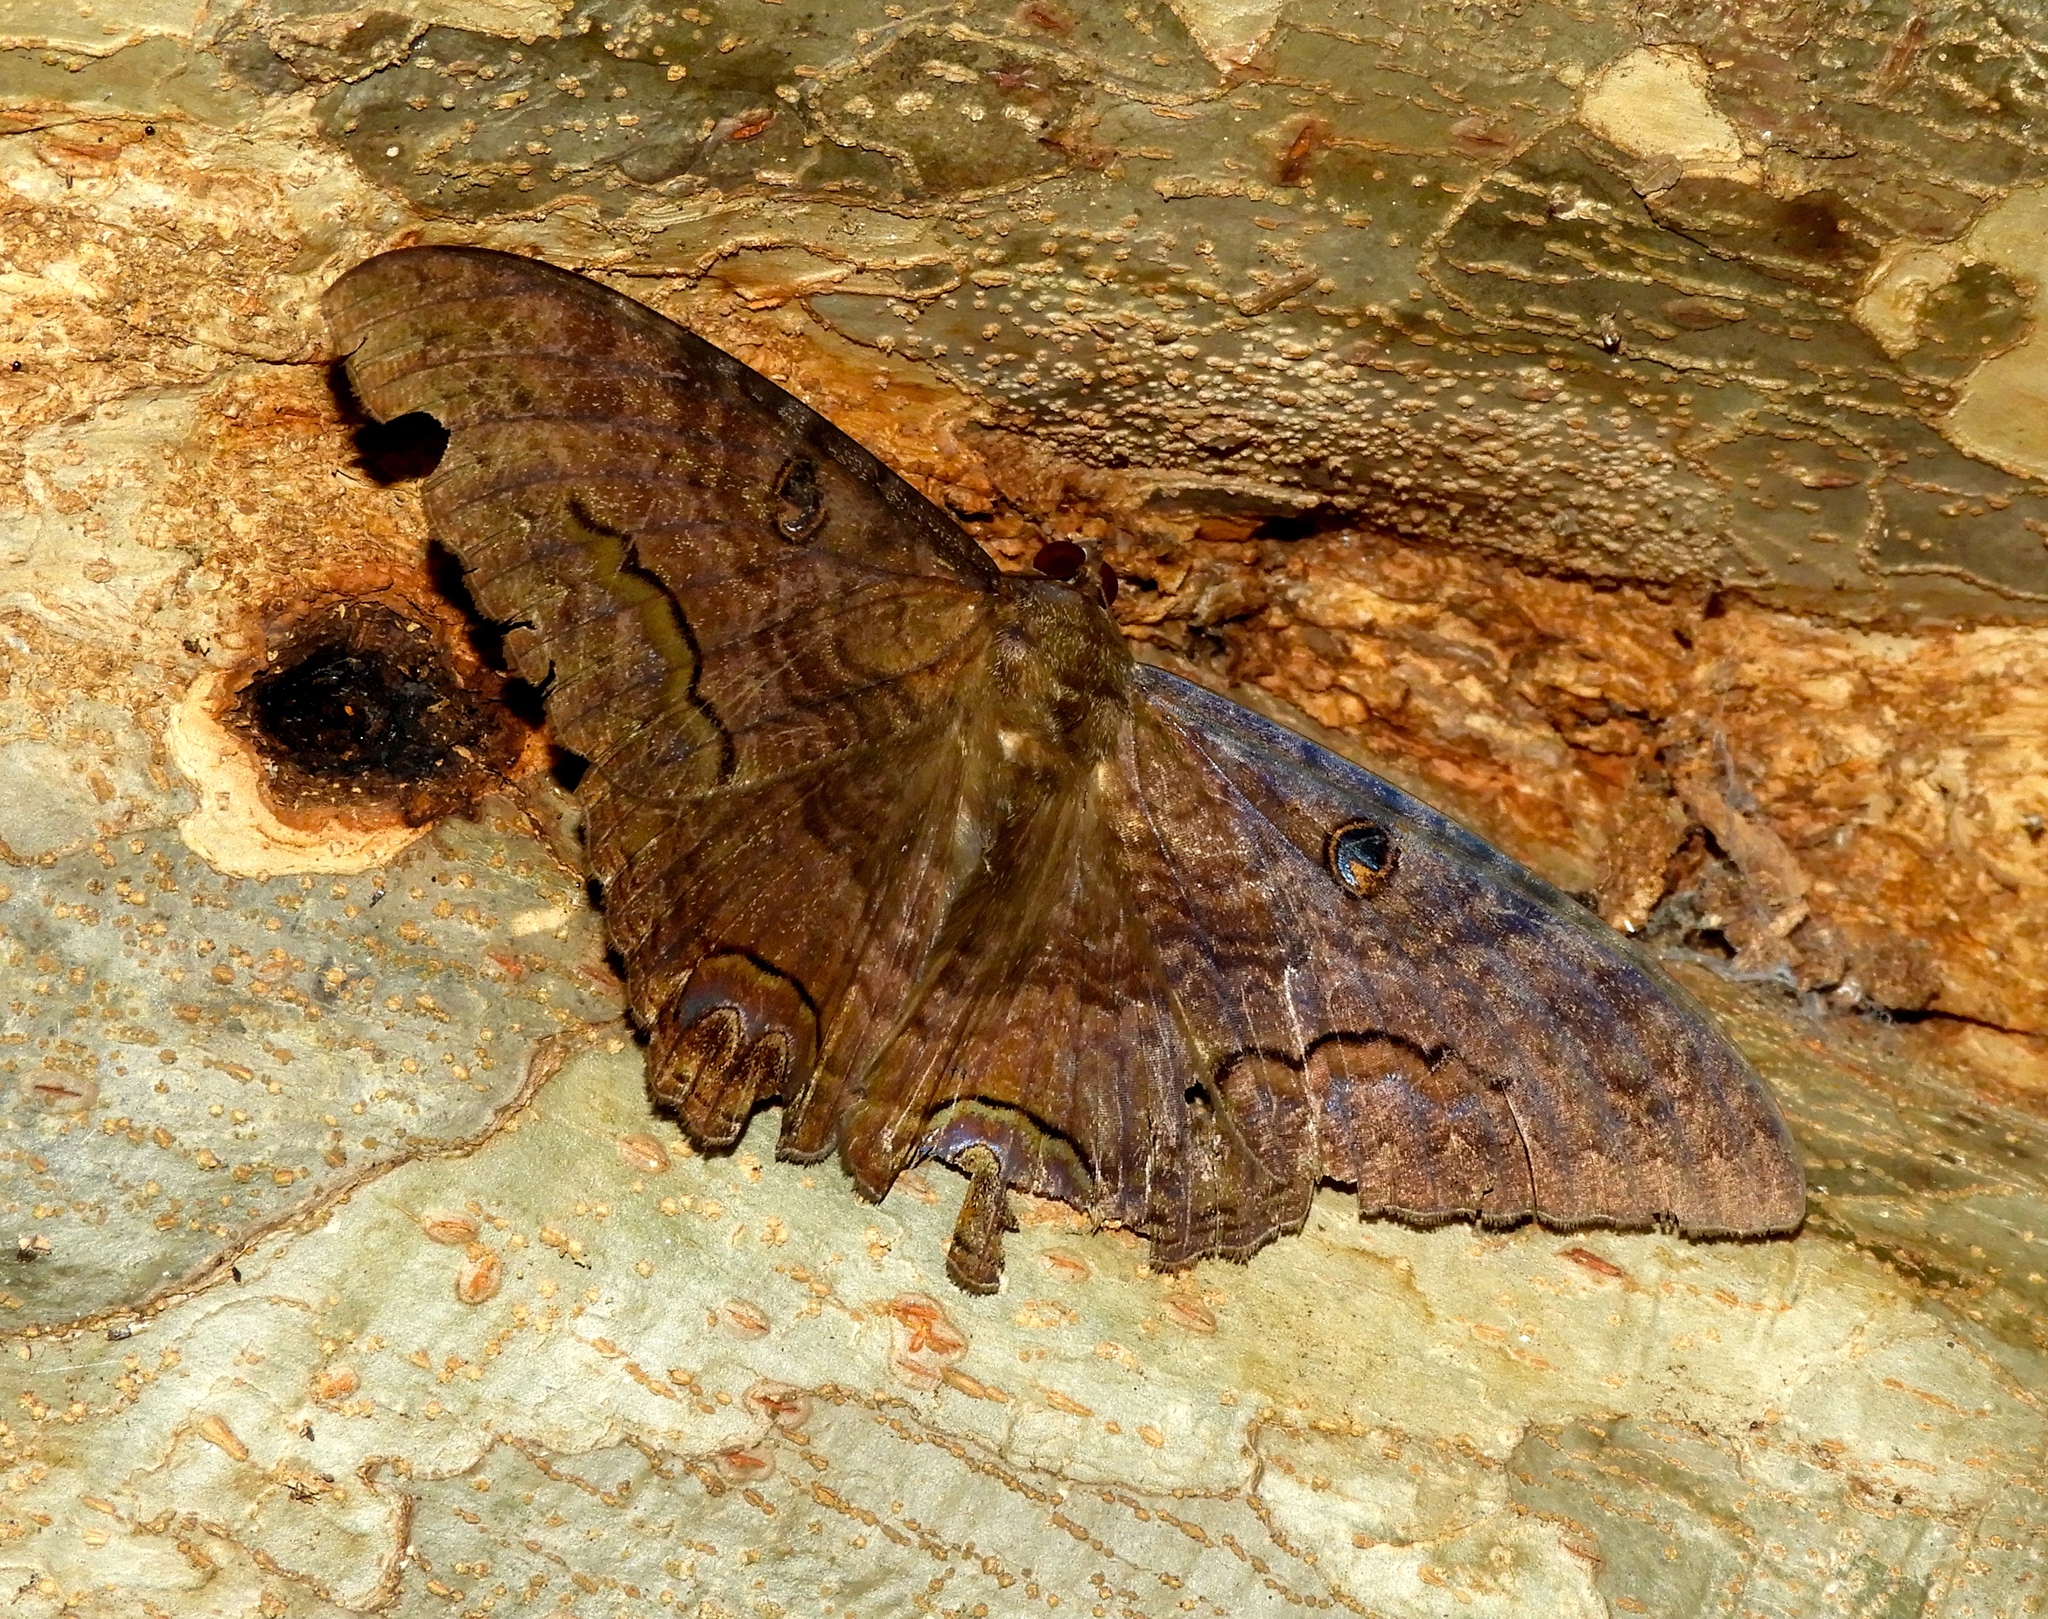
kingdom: Animalia
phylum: Arthropoda
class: Insecta
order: Lepidoptera
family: Erebidae
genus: Ascalapha
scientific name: Ascalapha odorata
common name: Black witch
